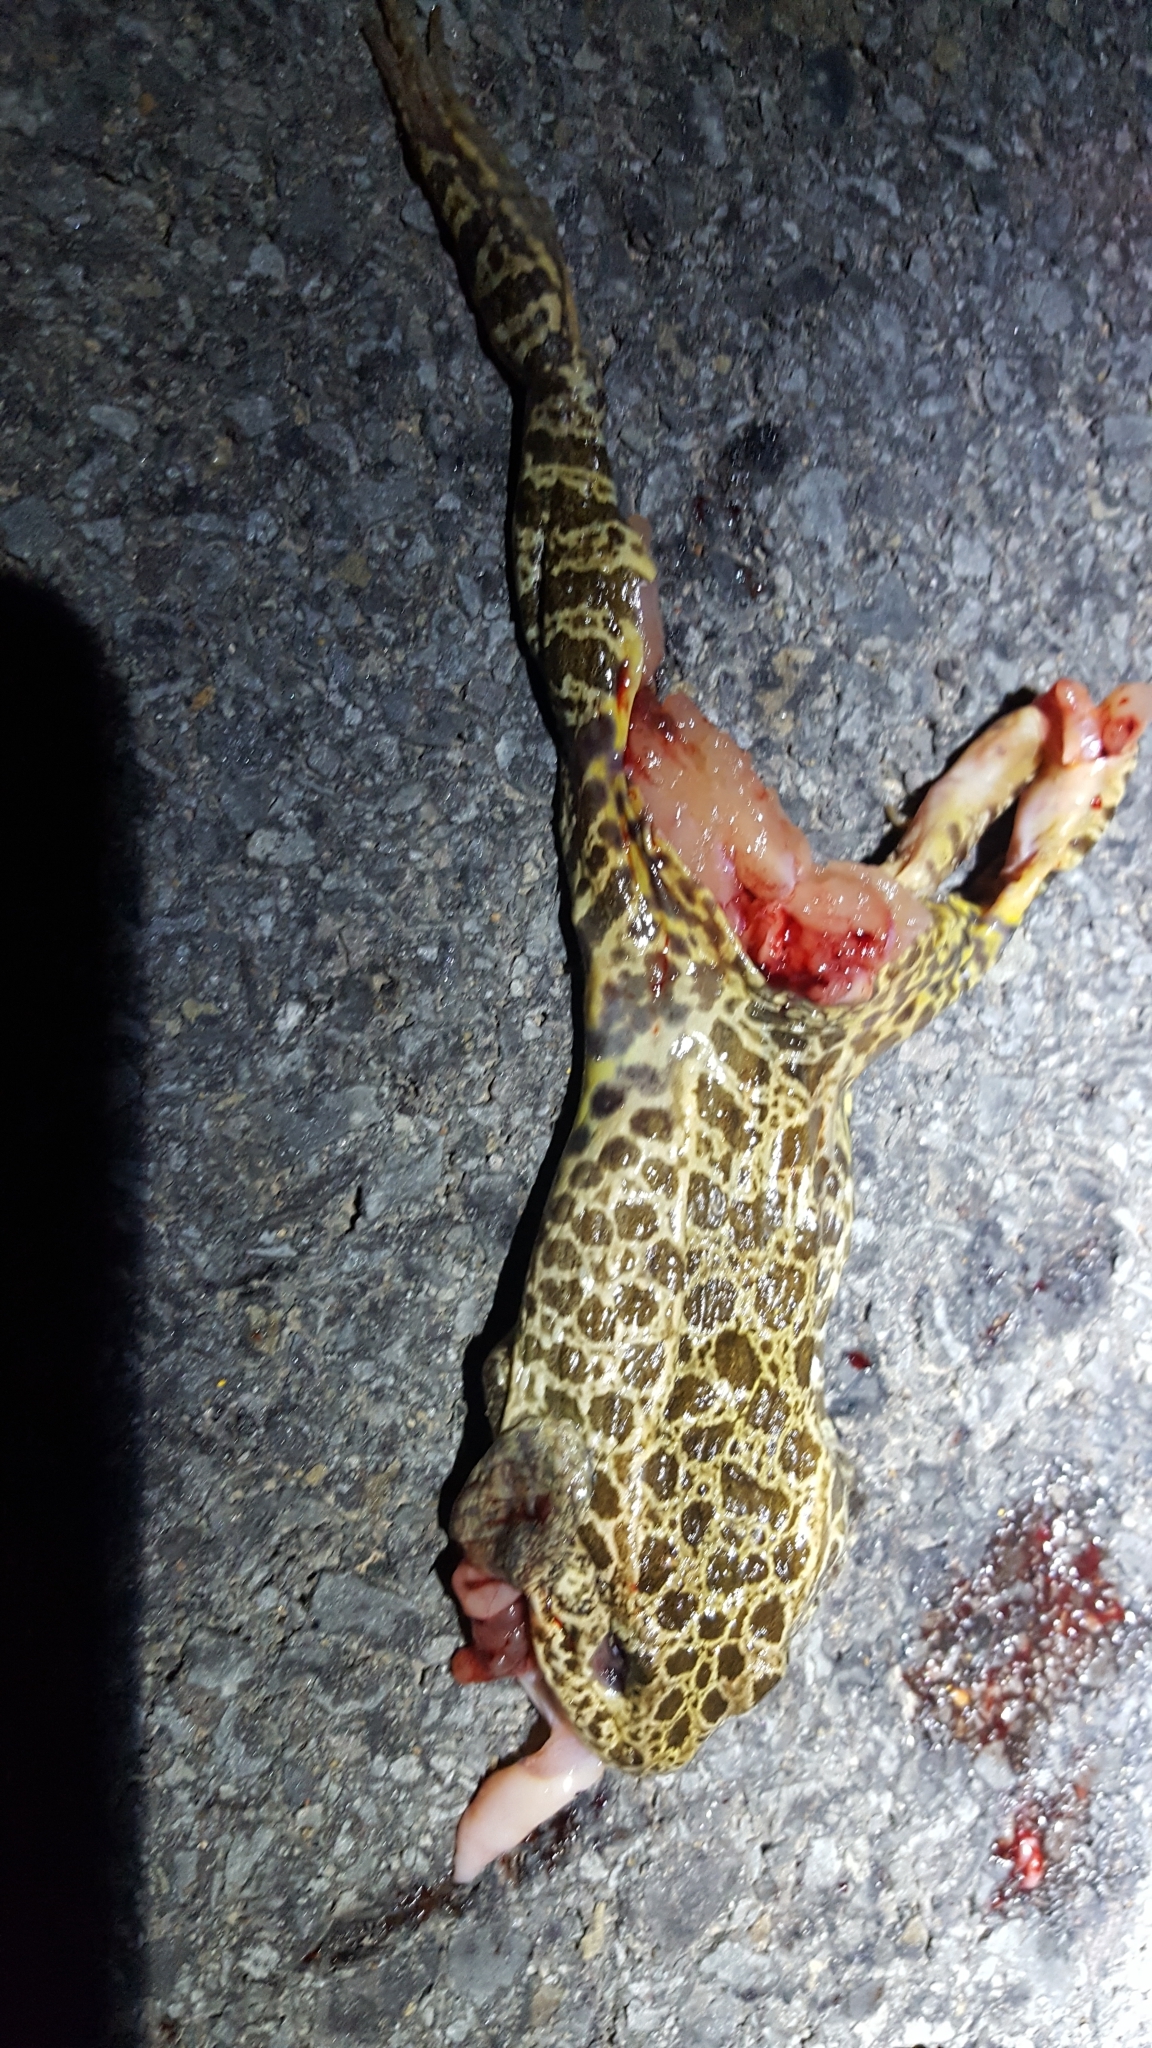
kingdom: Animalia
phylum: Chordata
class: Amphibia
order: Anura
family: Ranidae
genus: Lithobates
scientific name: Lithobates areolatus
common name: Crawfish frog
